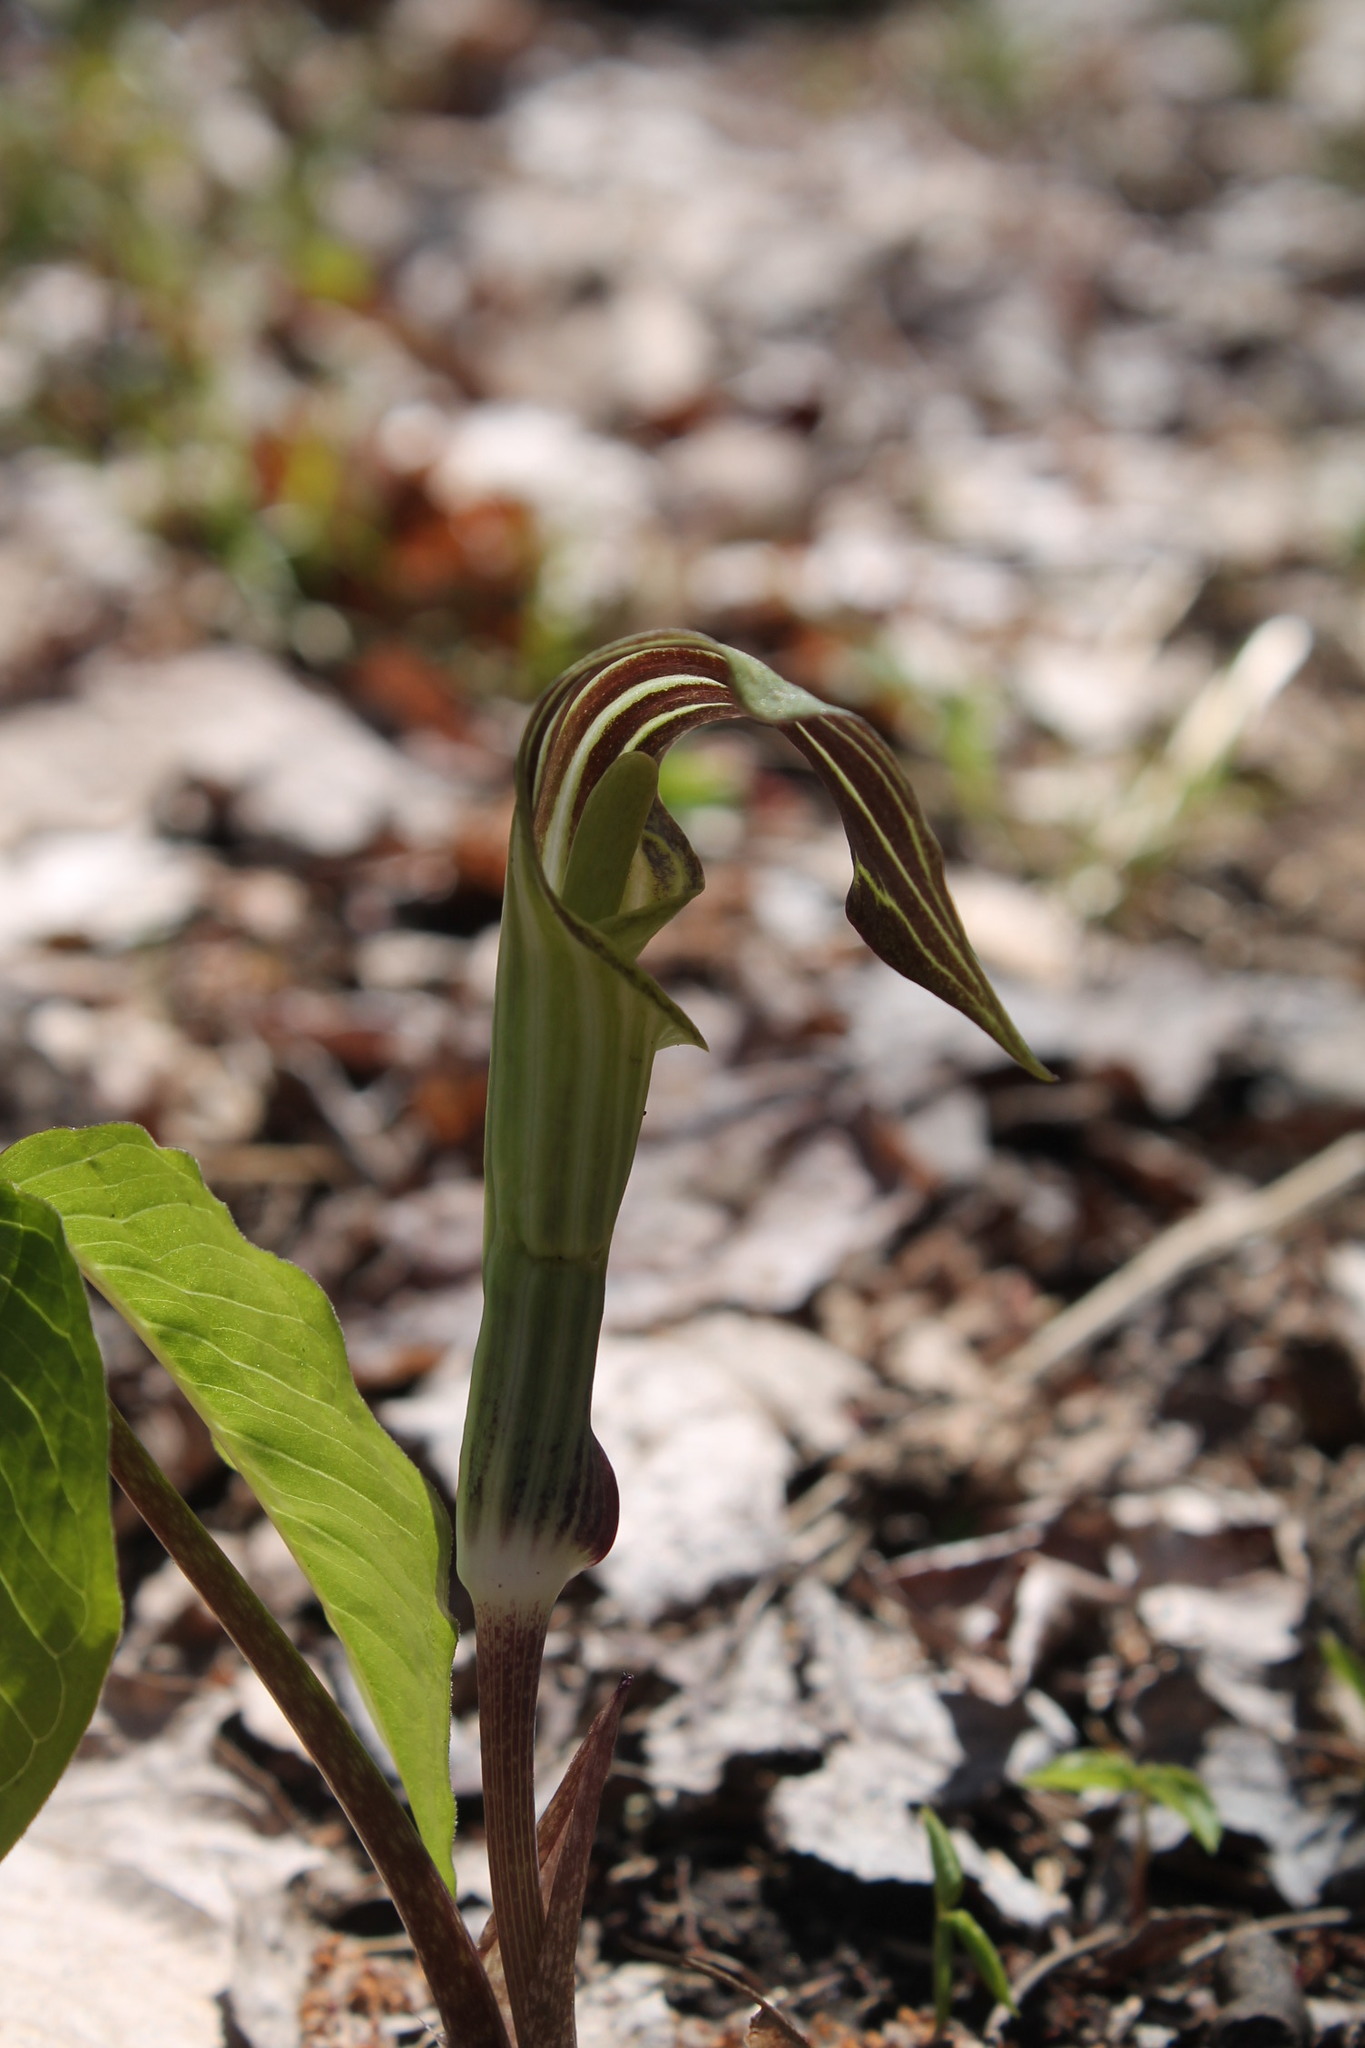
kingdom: Plantae
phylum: Tracheophyta
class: Liliopsida
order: Alismatales
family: Araceae
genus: Arisaema
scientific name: Arisaema triphyllum
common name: Jack-in-the-pulpit
